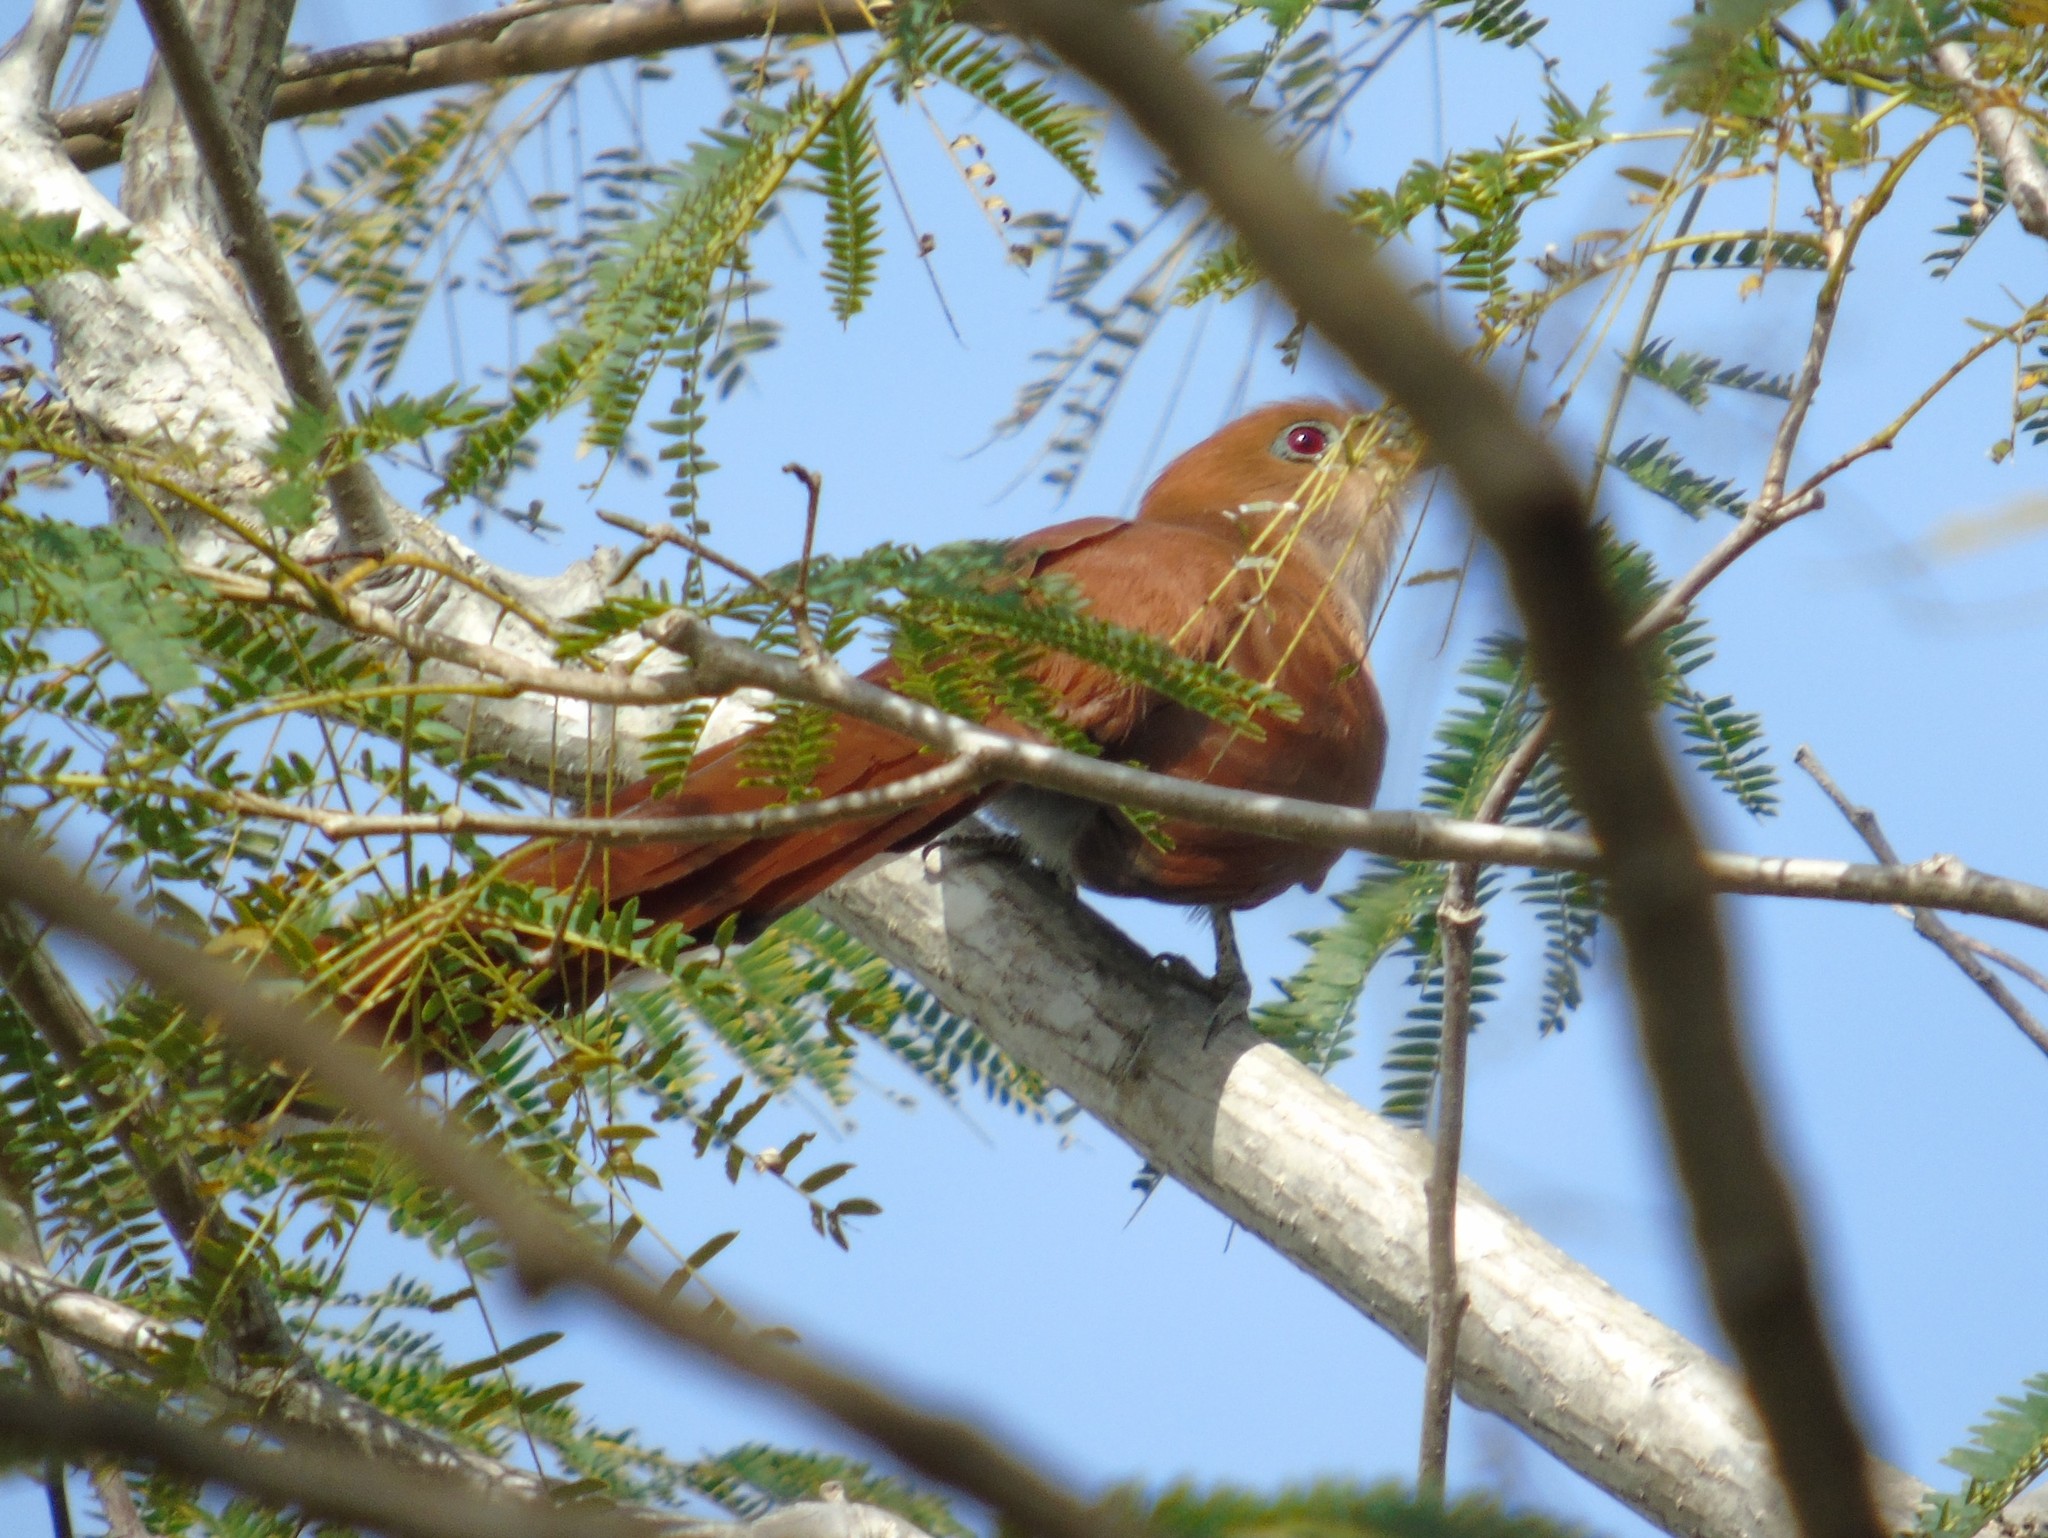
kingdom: Animalia
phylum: Chordata
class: Aves
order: Cuculiformes
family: Cuculidae
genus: Piaya
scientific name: Piaya cayana
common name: Squirrel cuckoo
